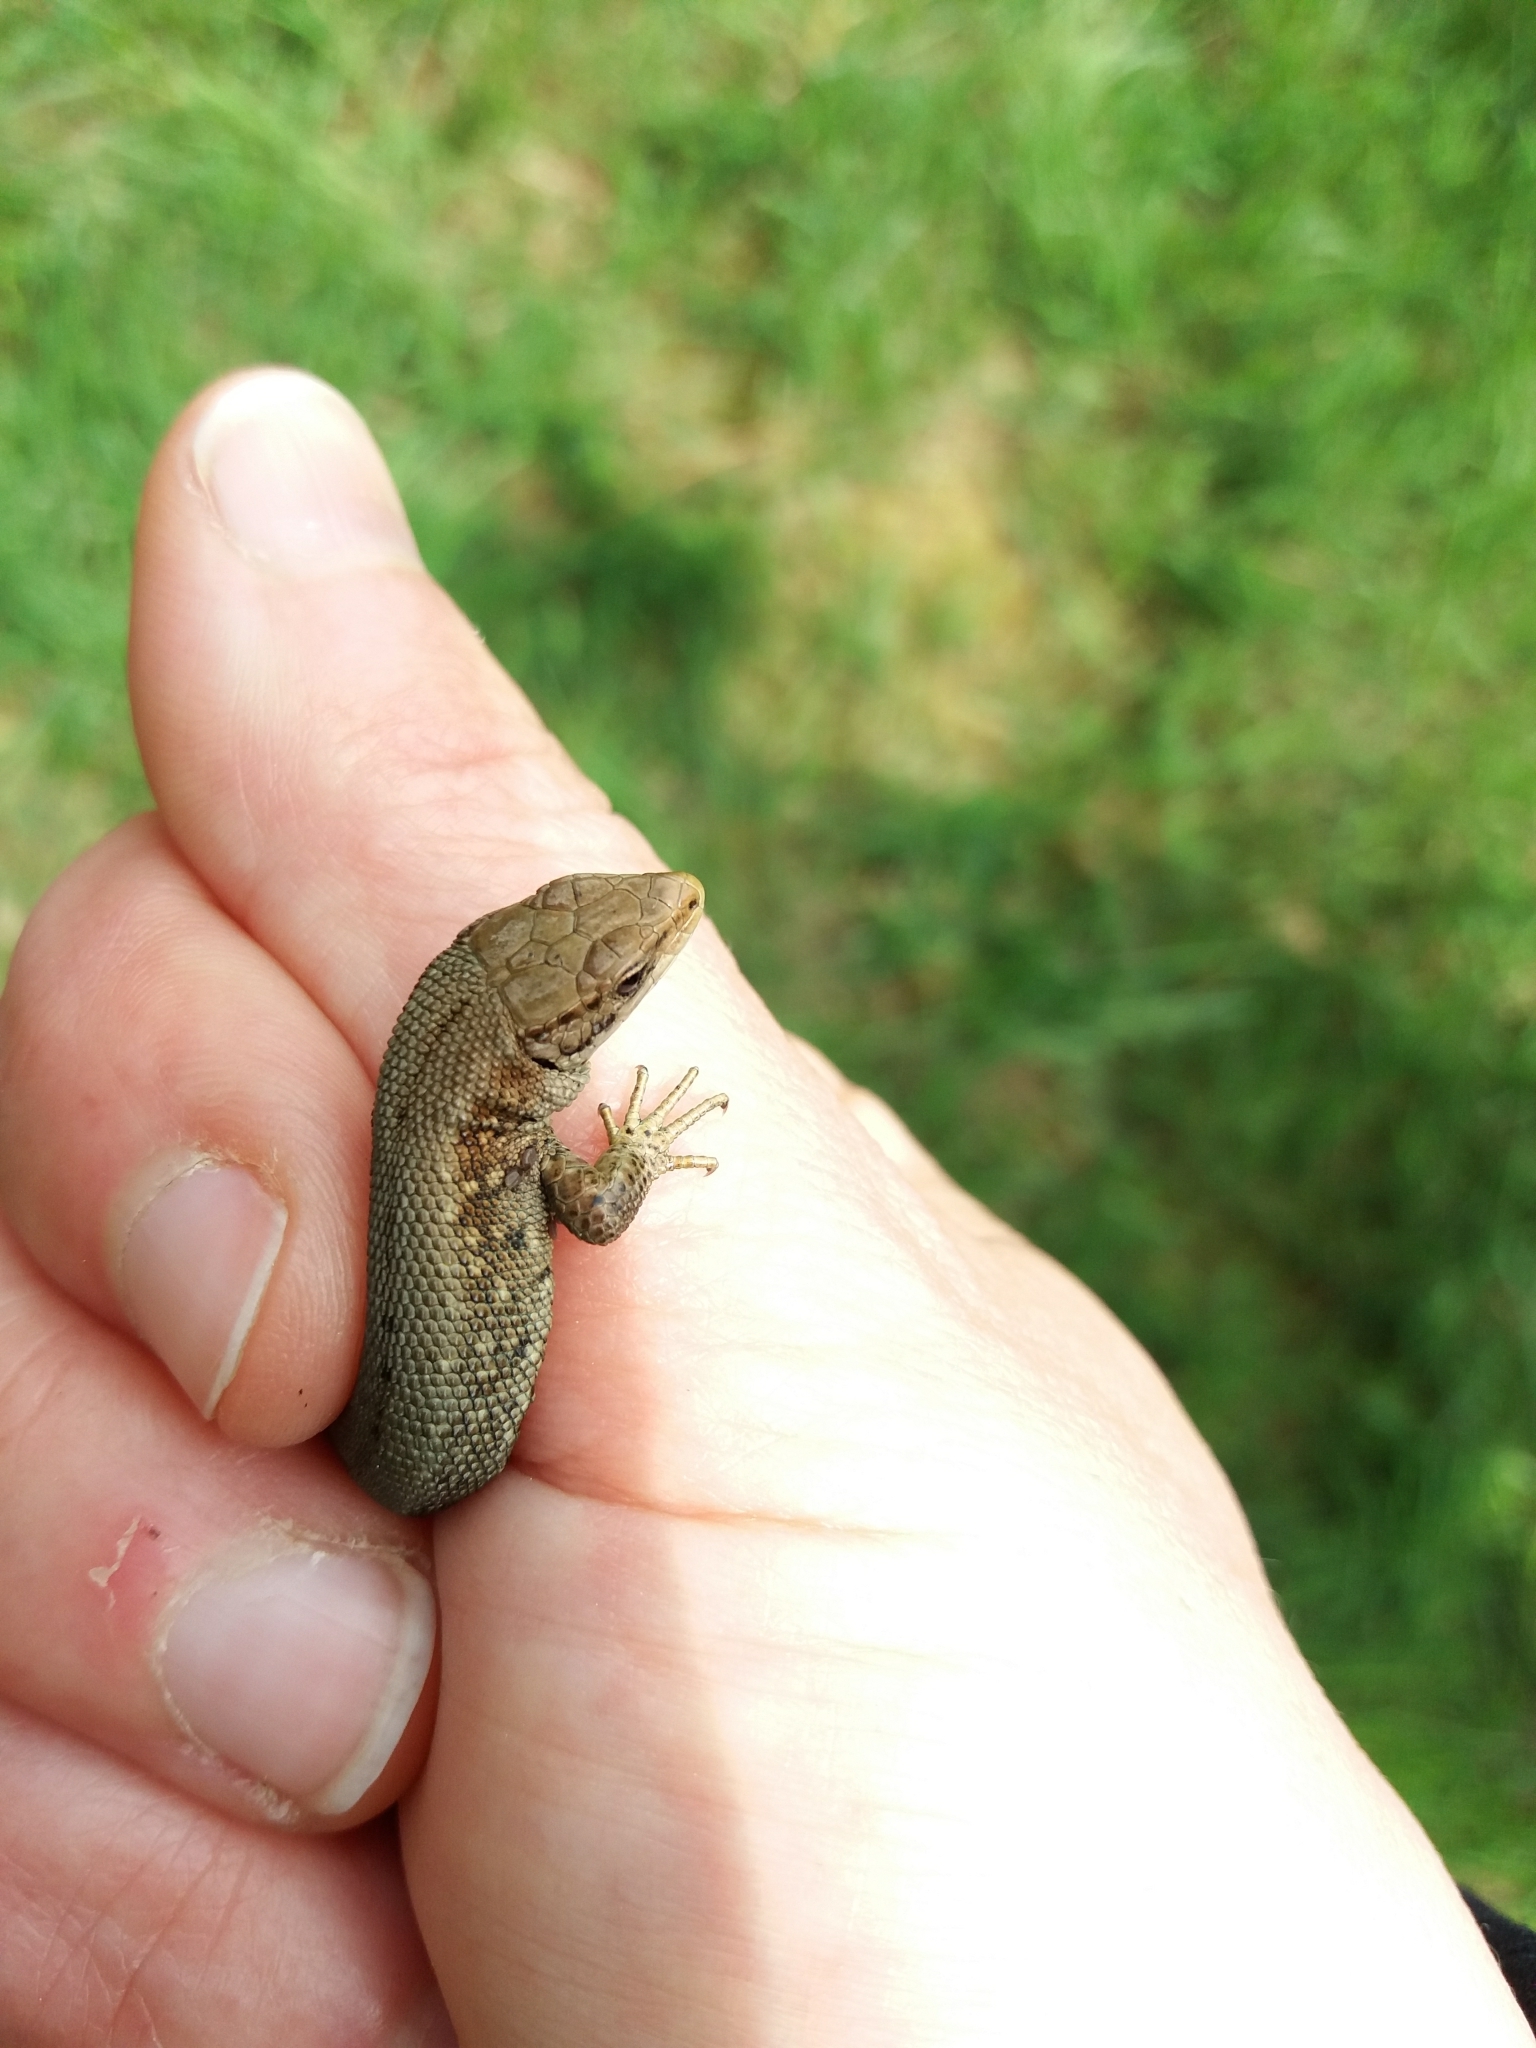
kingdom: Animalia
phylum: Chordata
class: Squamata
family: Lacertidae
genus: Zootoca
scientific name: Zootoca vivipara
